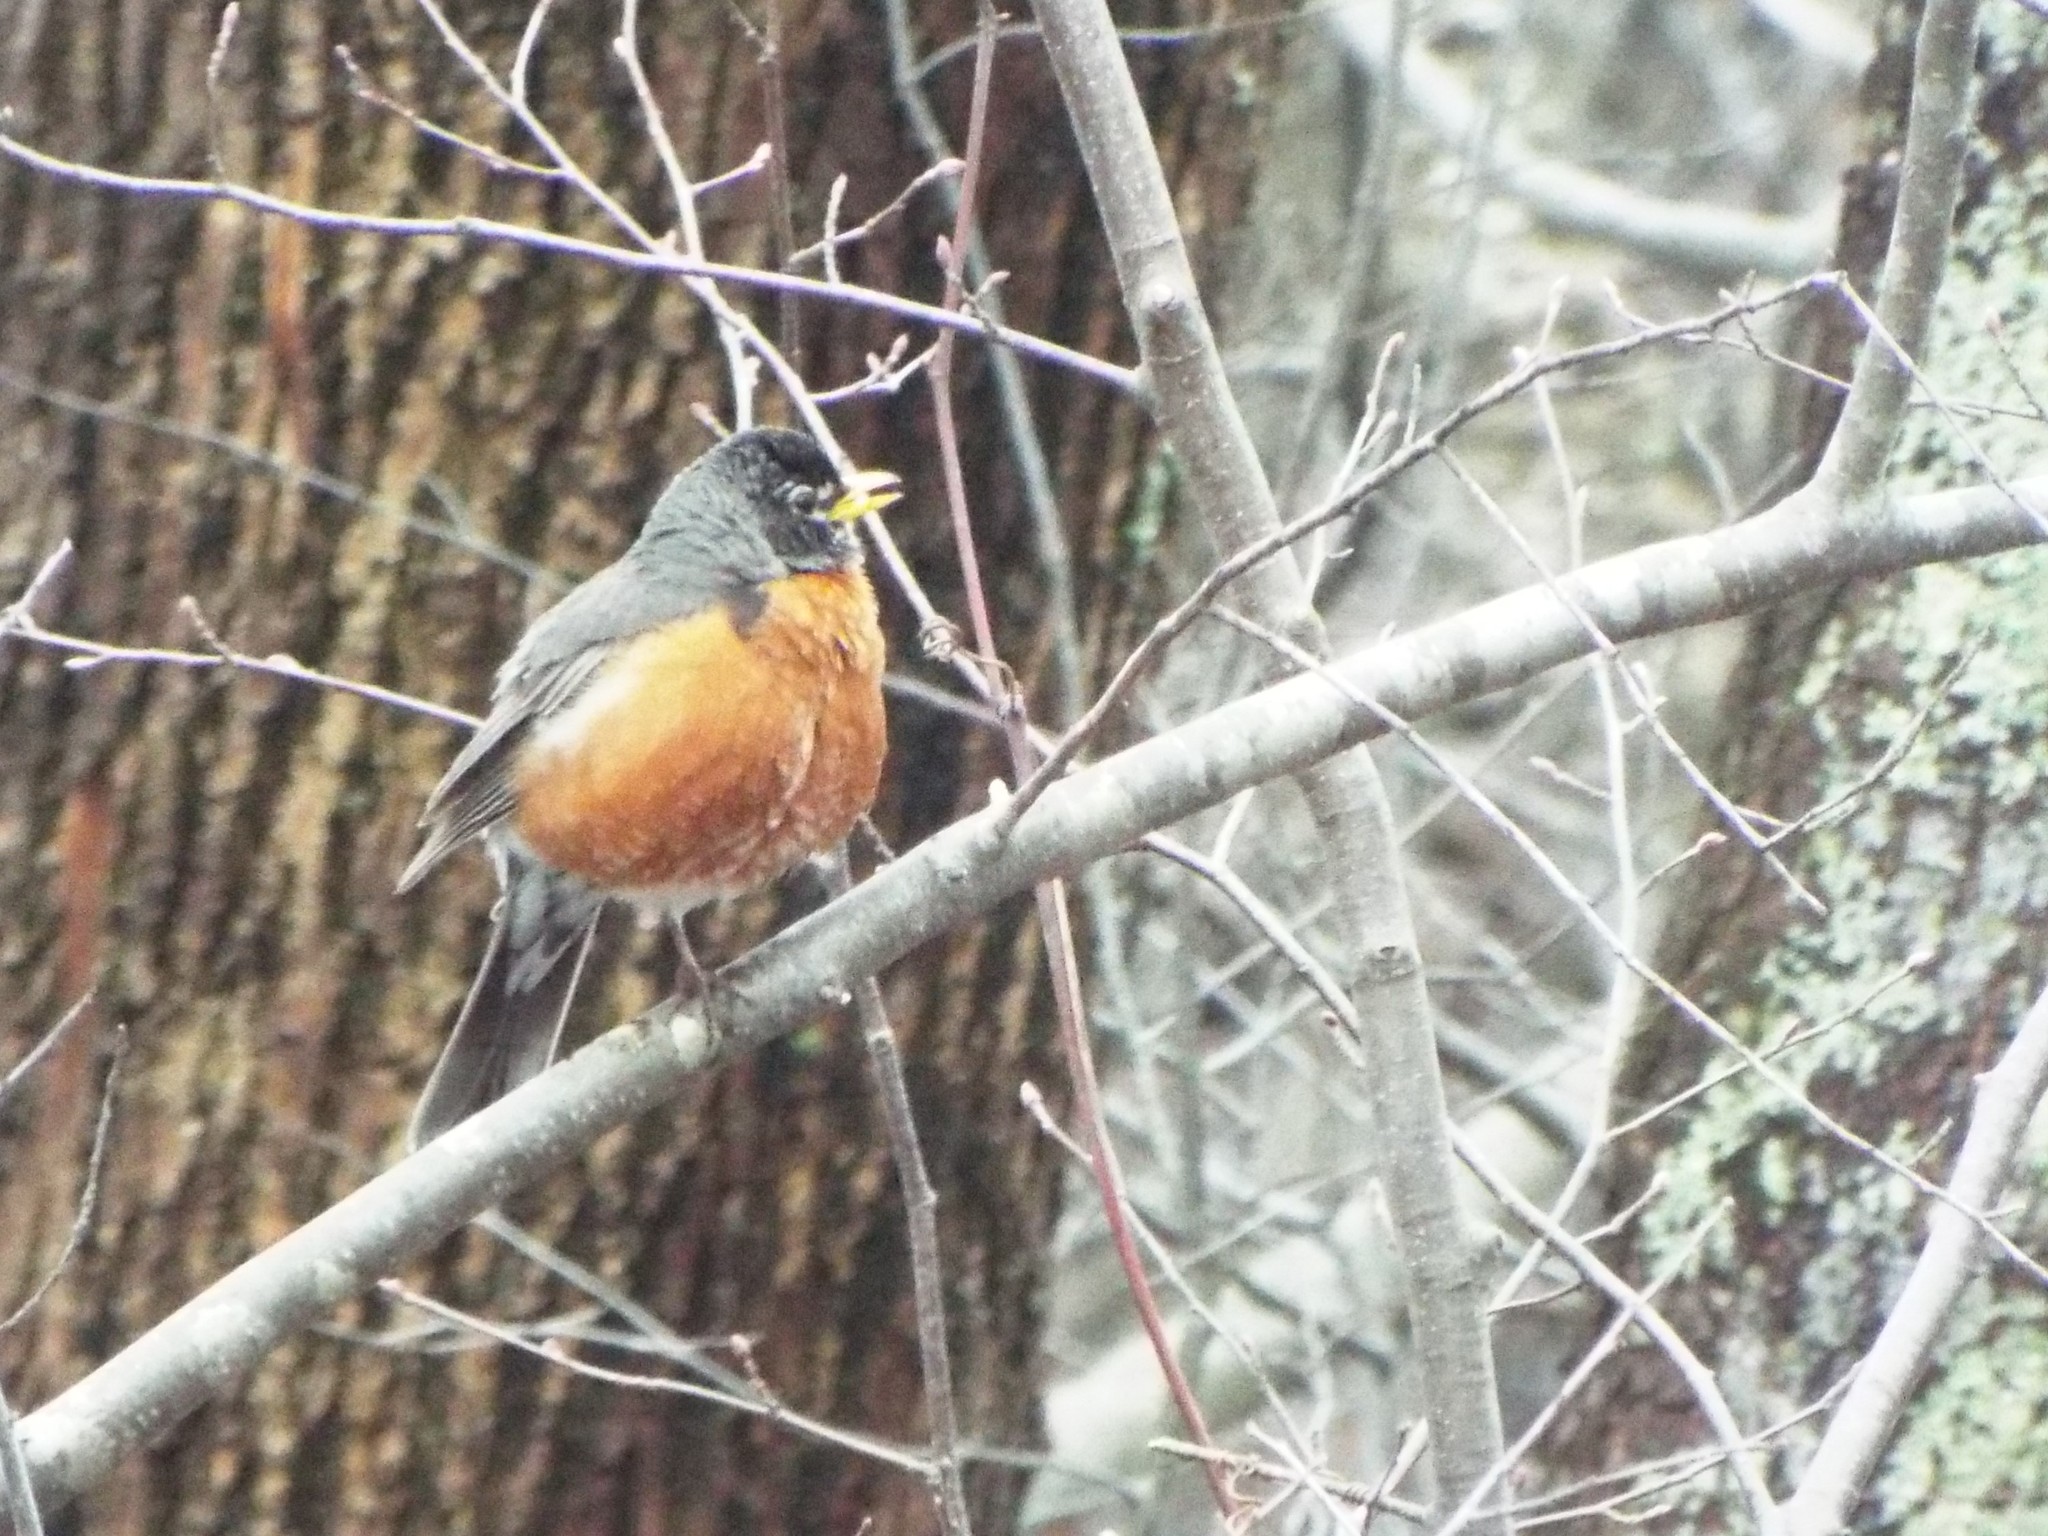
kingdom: Animalia
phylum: Chordata
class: Aves
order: Passeriformes
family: Turdidae
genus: Turdus
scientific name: Turdus migratorius
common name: American robin
